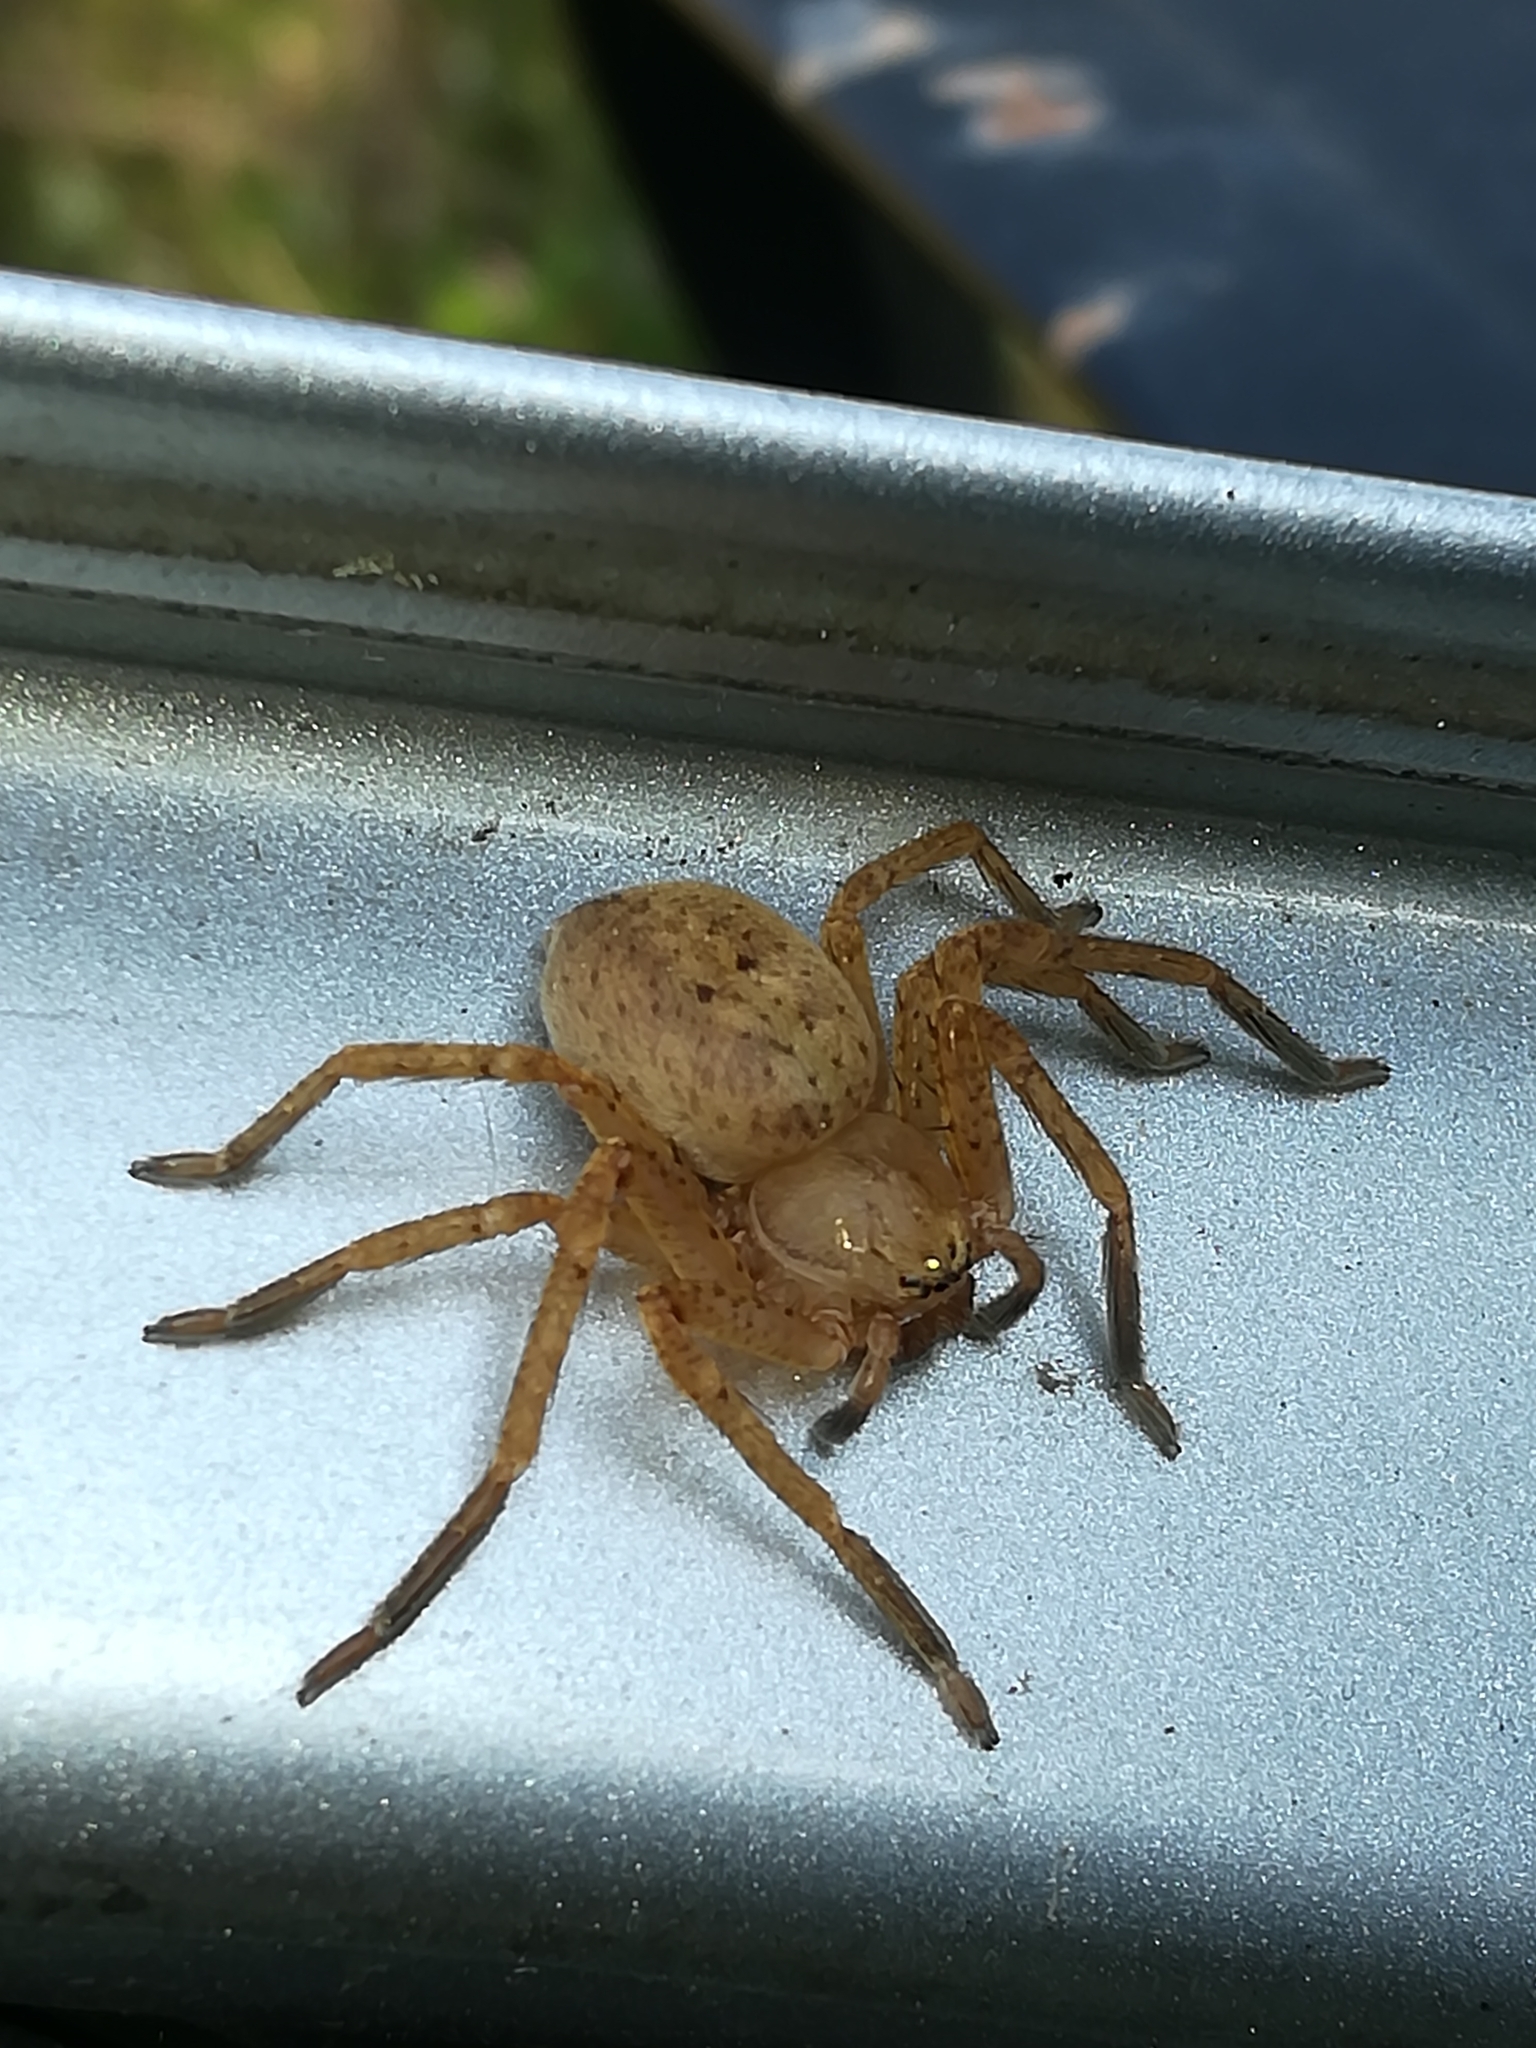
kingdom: Animalia
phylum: Arthropoda
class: Arachnida
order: Araneae
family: Sparassidae
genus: Olios
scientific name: Olios argelasius
